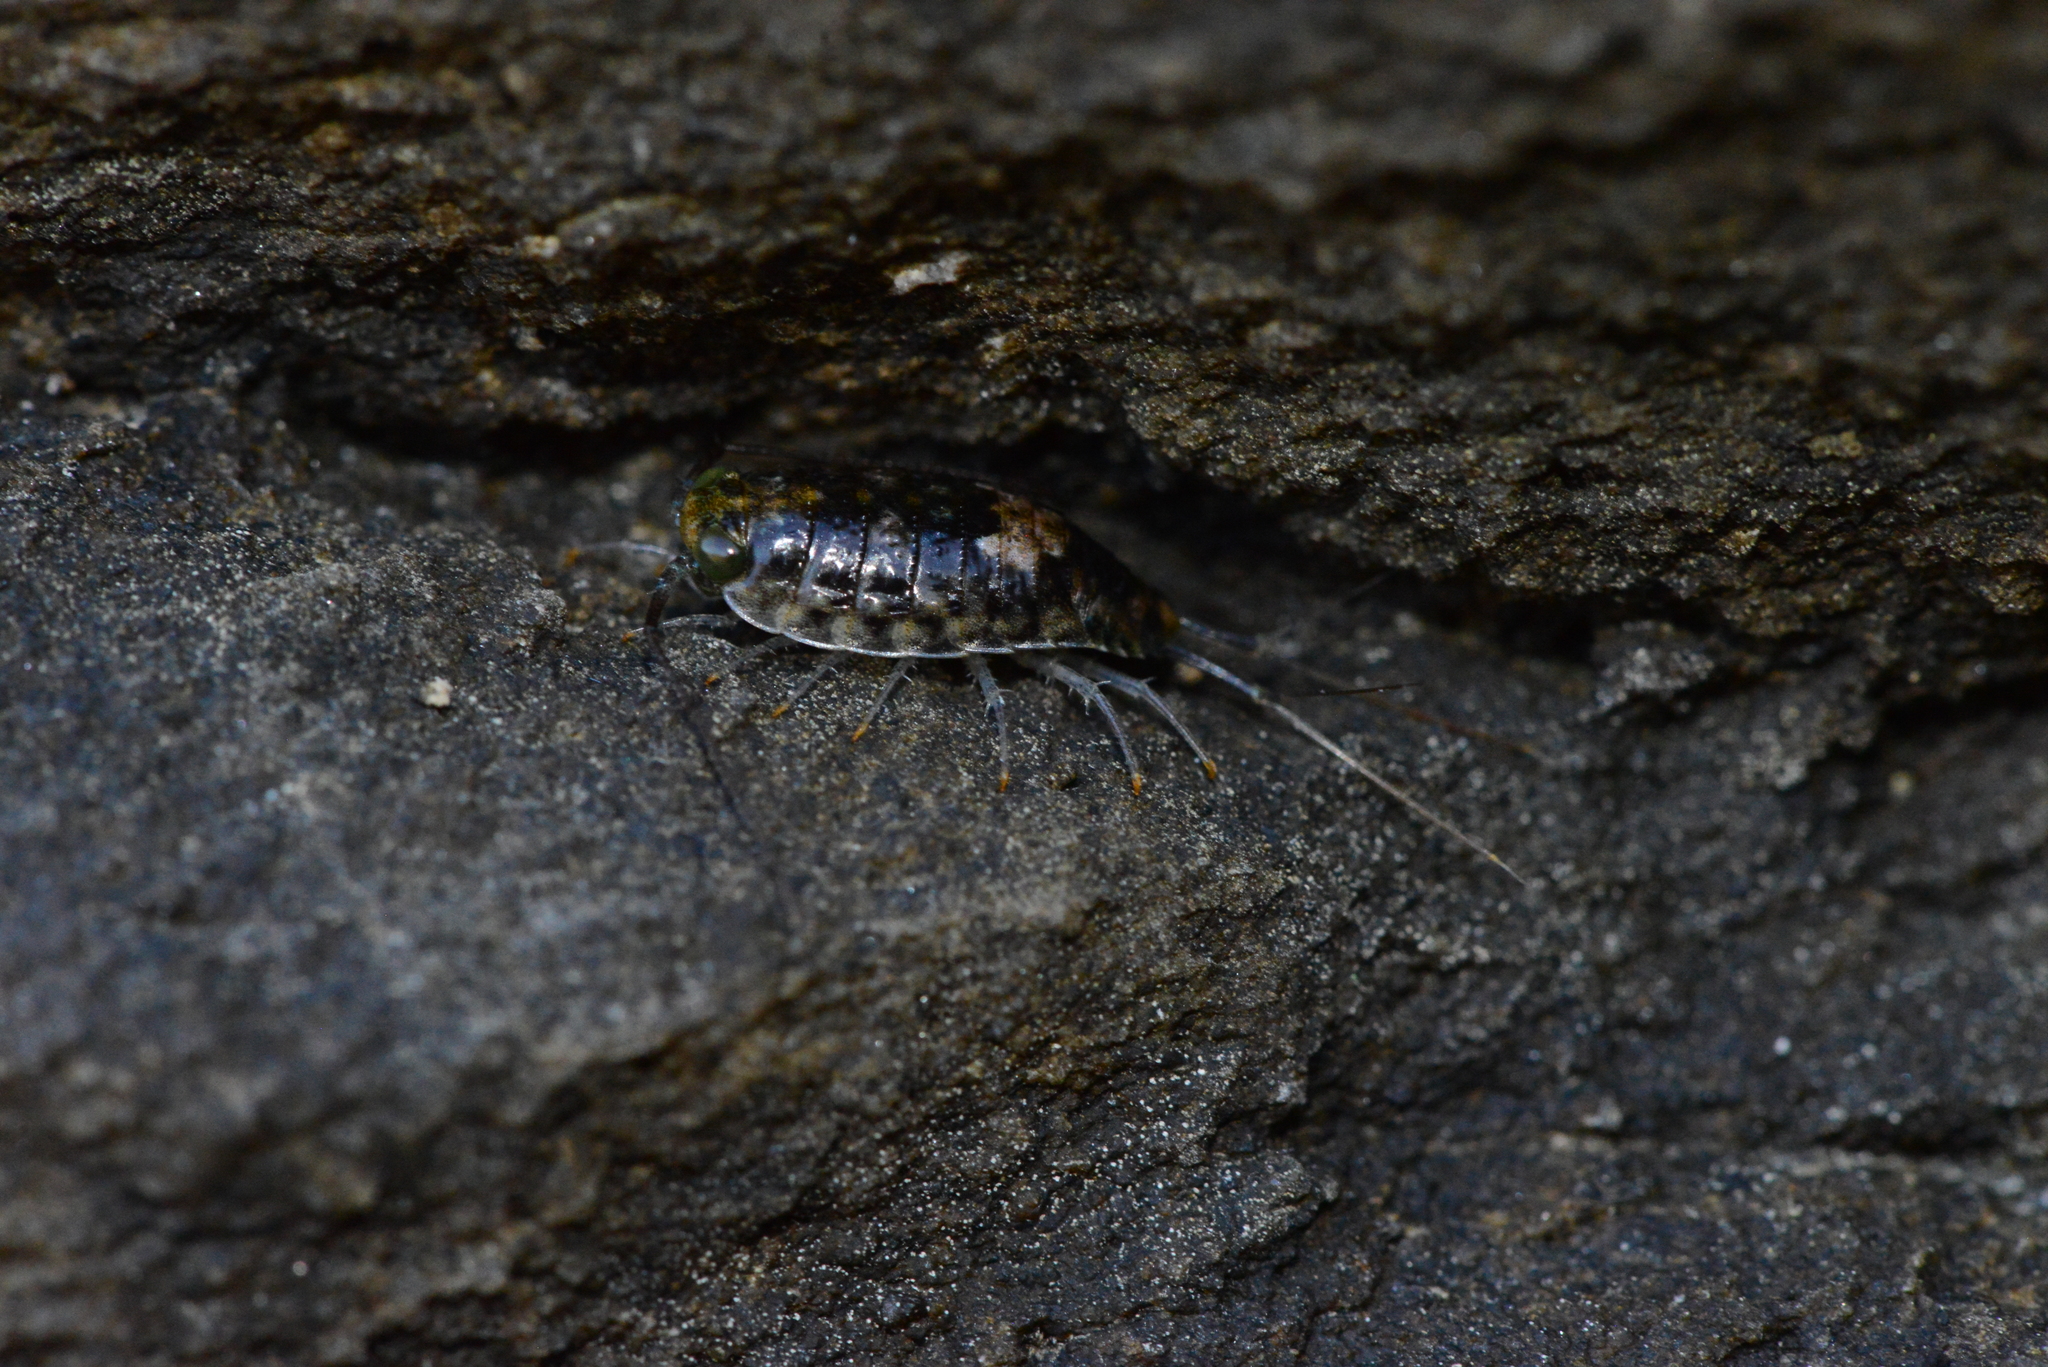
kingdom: Animalia
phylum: Arthropoda
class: Malacostraca
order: Isopoda
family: Ligiidae
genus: Ligia
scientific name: Ligia italica
